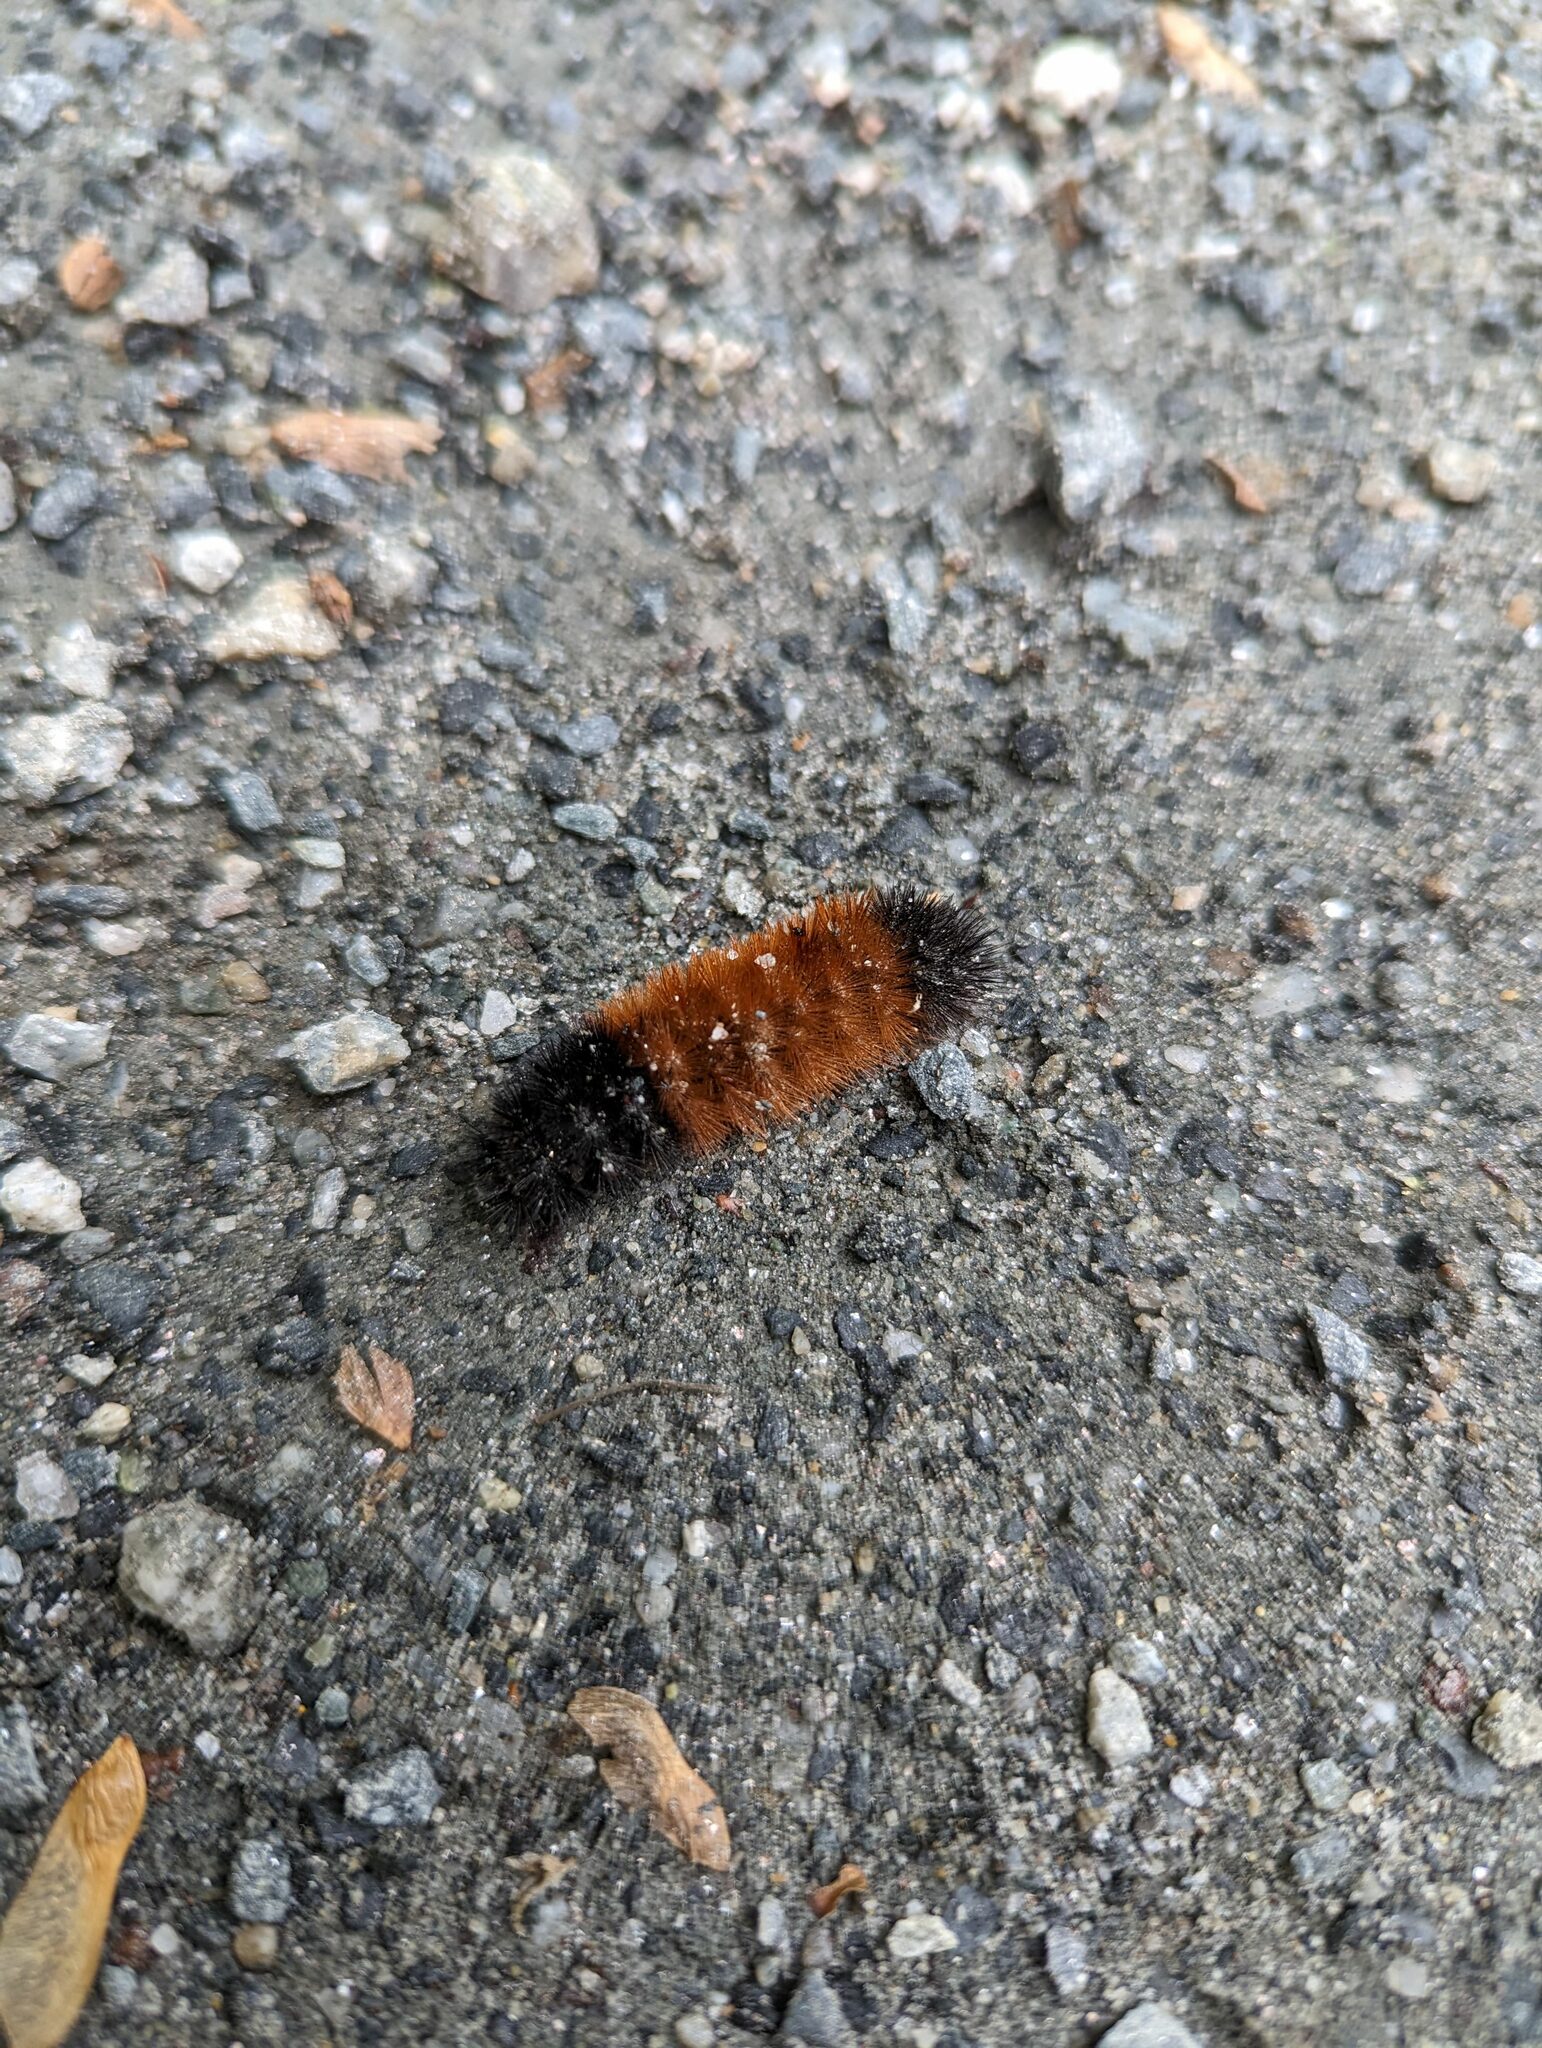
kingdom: Animalia
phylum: Arthropoda
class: Insecta
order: Lepidoptera
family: Erebidae
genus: Pyrrharctia
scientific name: Pyrrharctia isabella
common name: Isabella tiger moth
